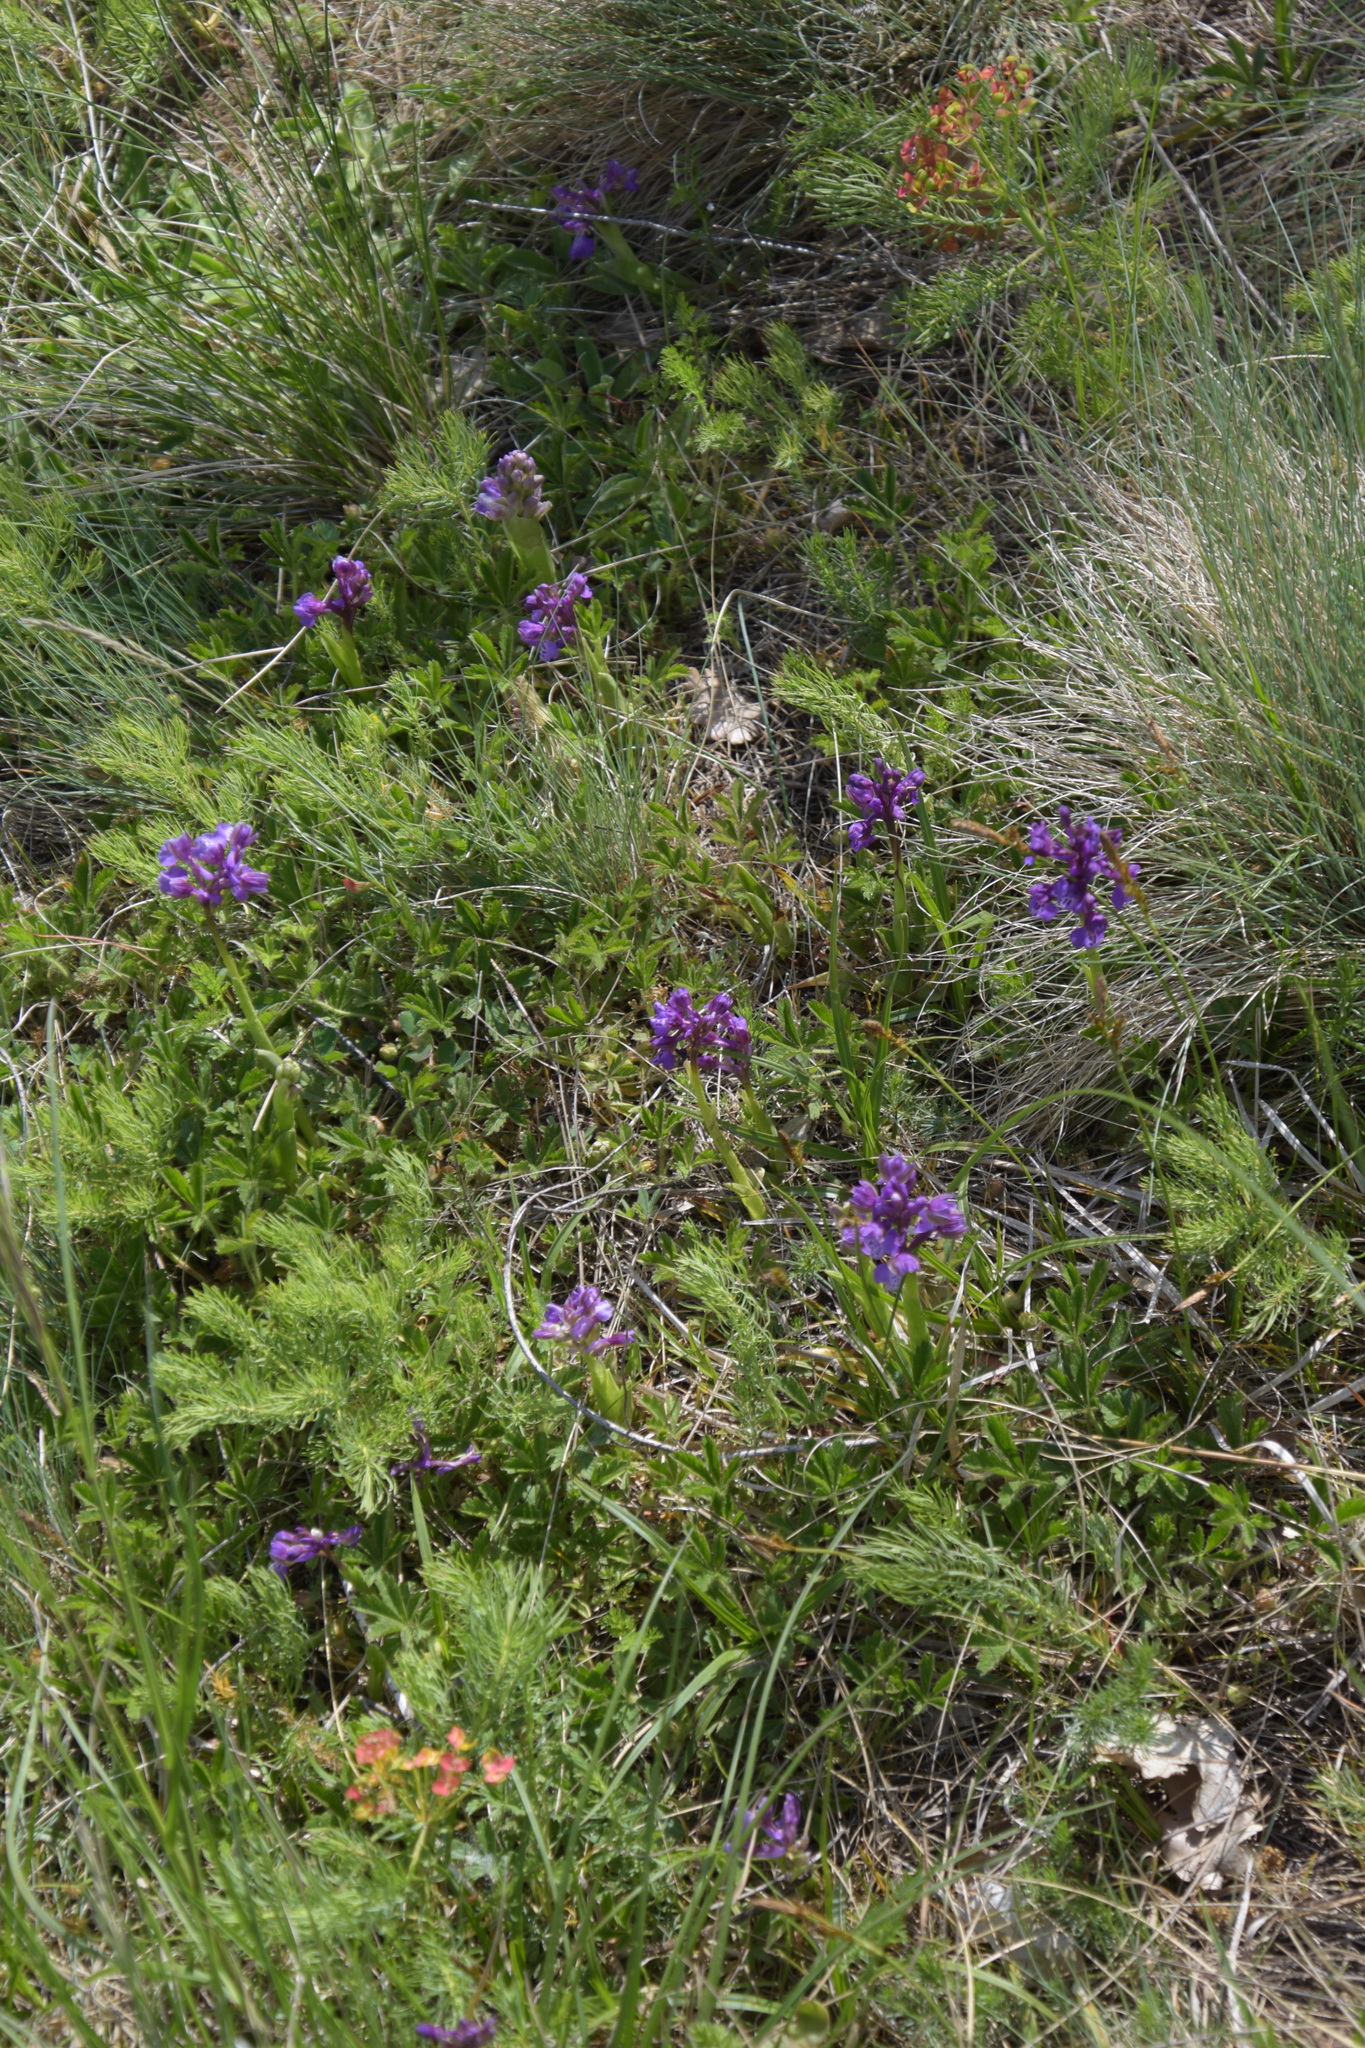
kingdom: Plantae
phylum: Tracheophyta
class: Liliopsida
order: Asparagales
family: Orchidaceae
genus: Anacamptis
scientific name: Anacamptis morio
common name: Green-winged orchid
